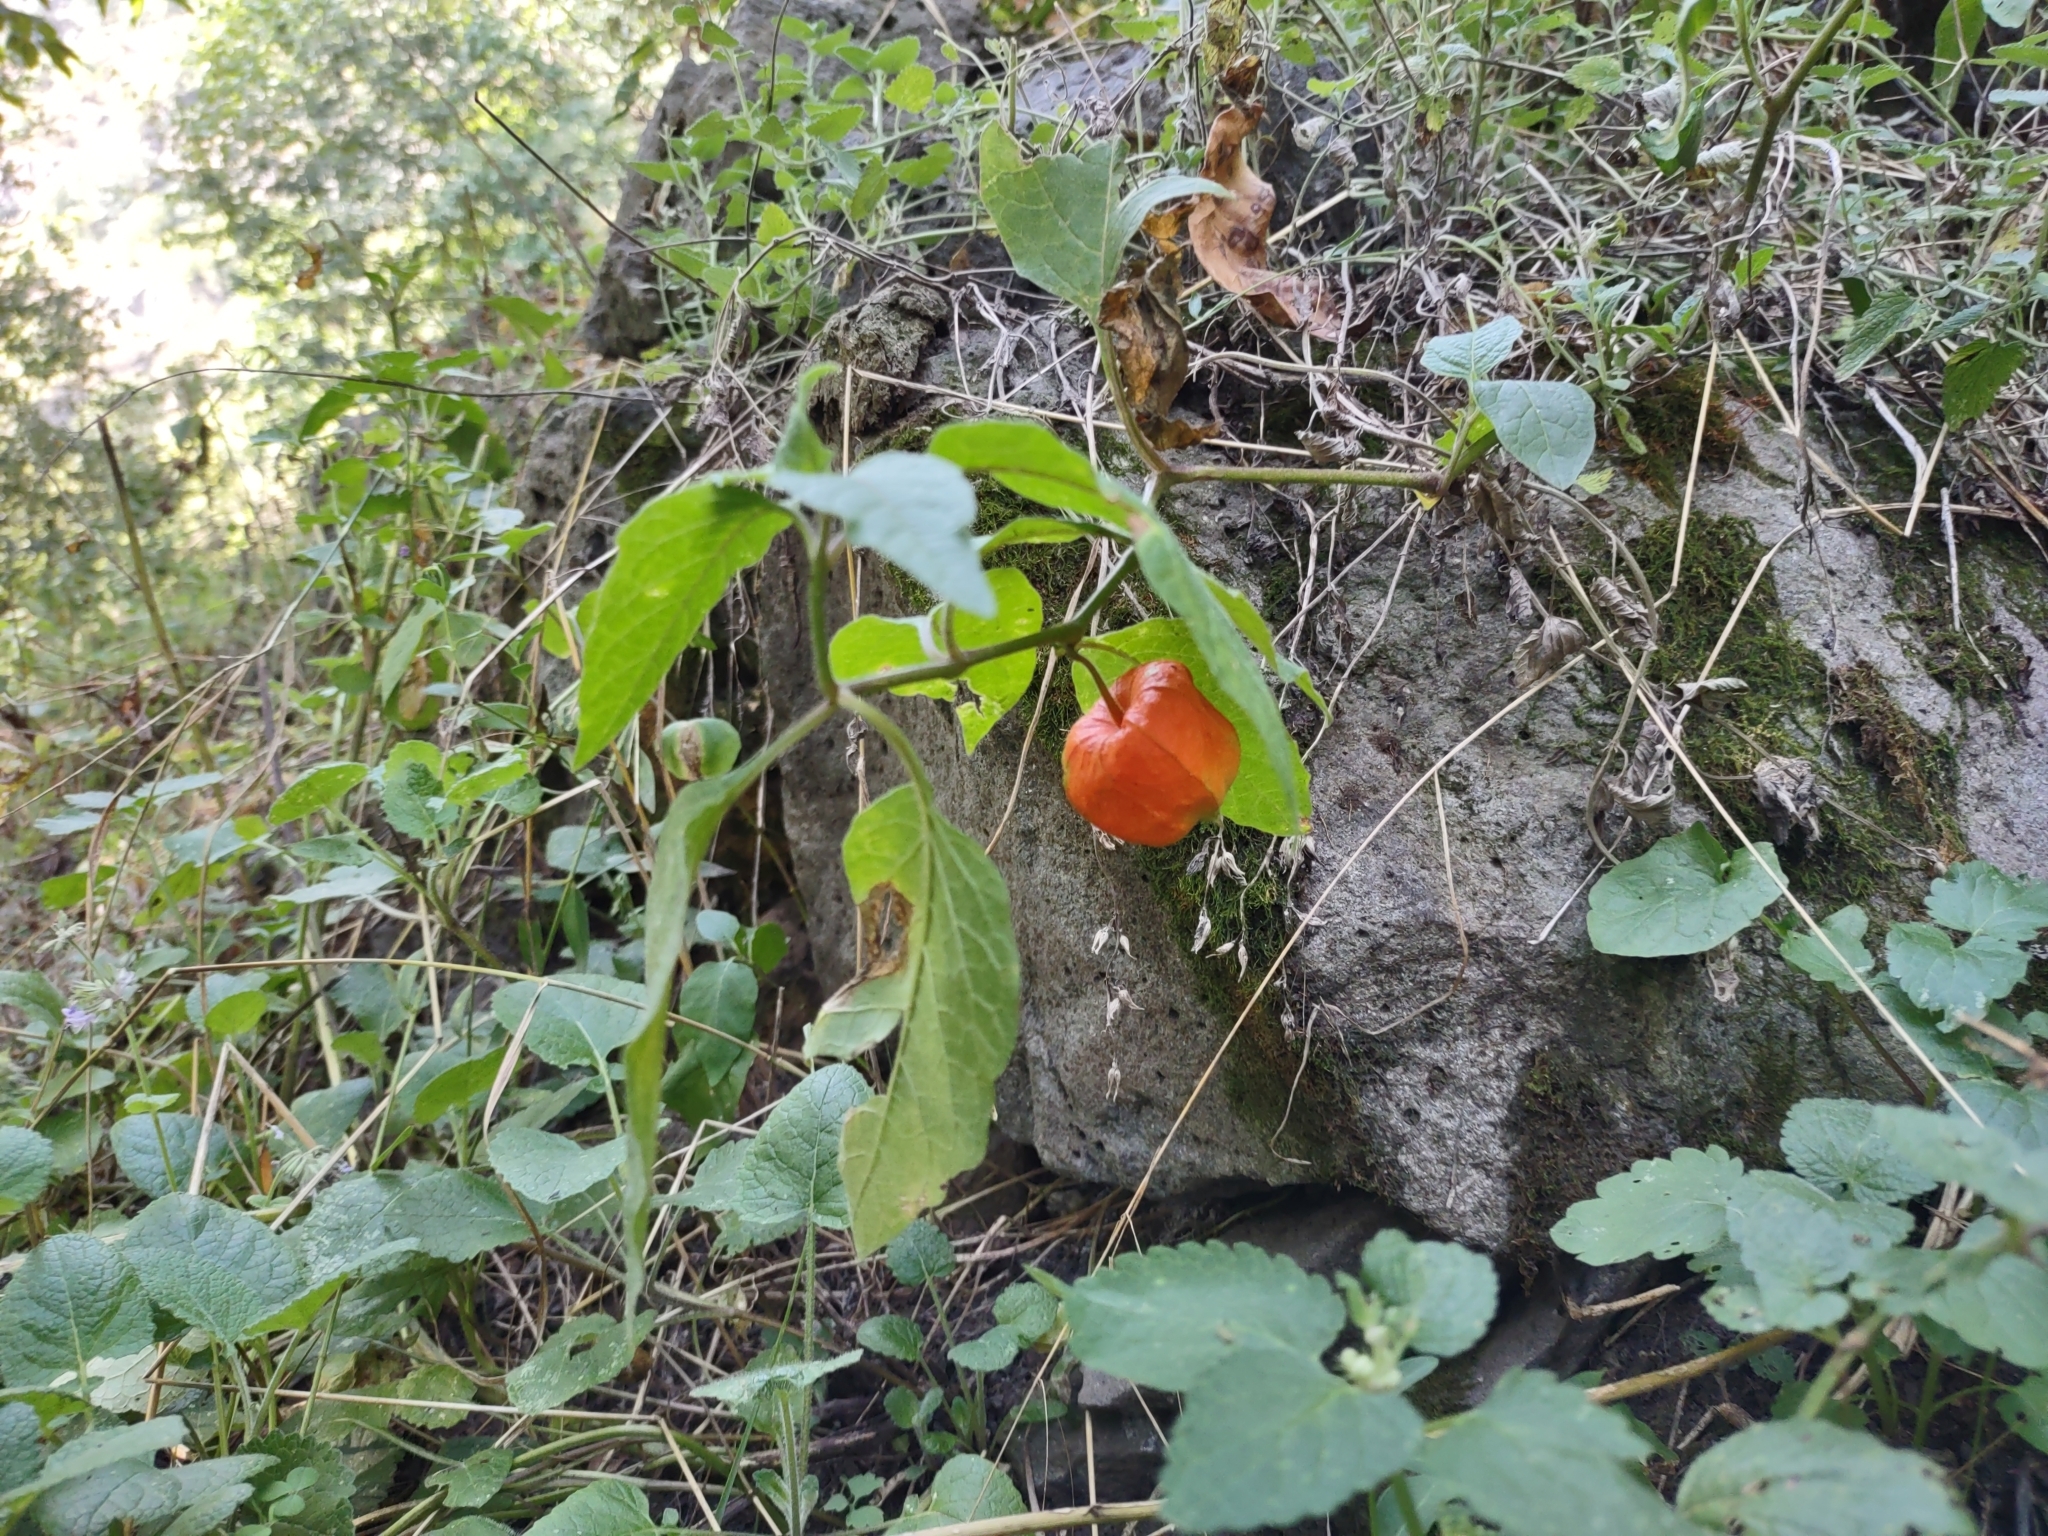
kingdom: Plantae
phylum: Tracheophyta
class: Magnoliopsida
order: Solanales
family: Solanaceae
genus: Alkekengi
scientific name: Alkekengi officinarum
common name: Japanese-lantern
